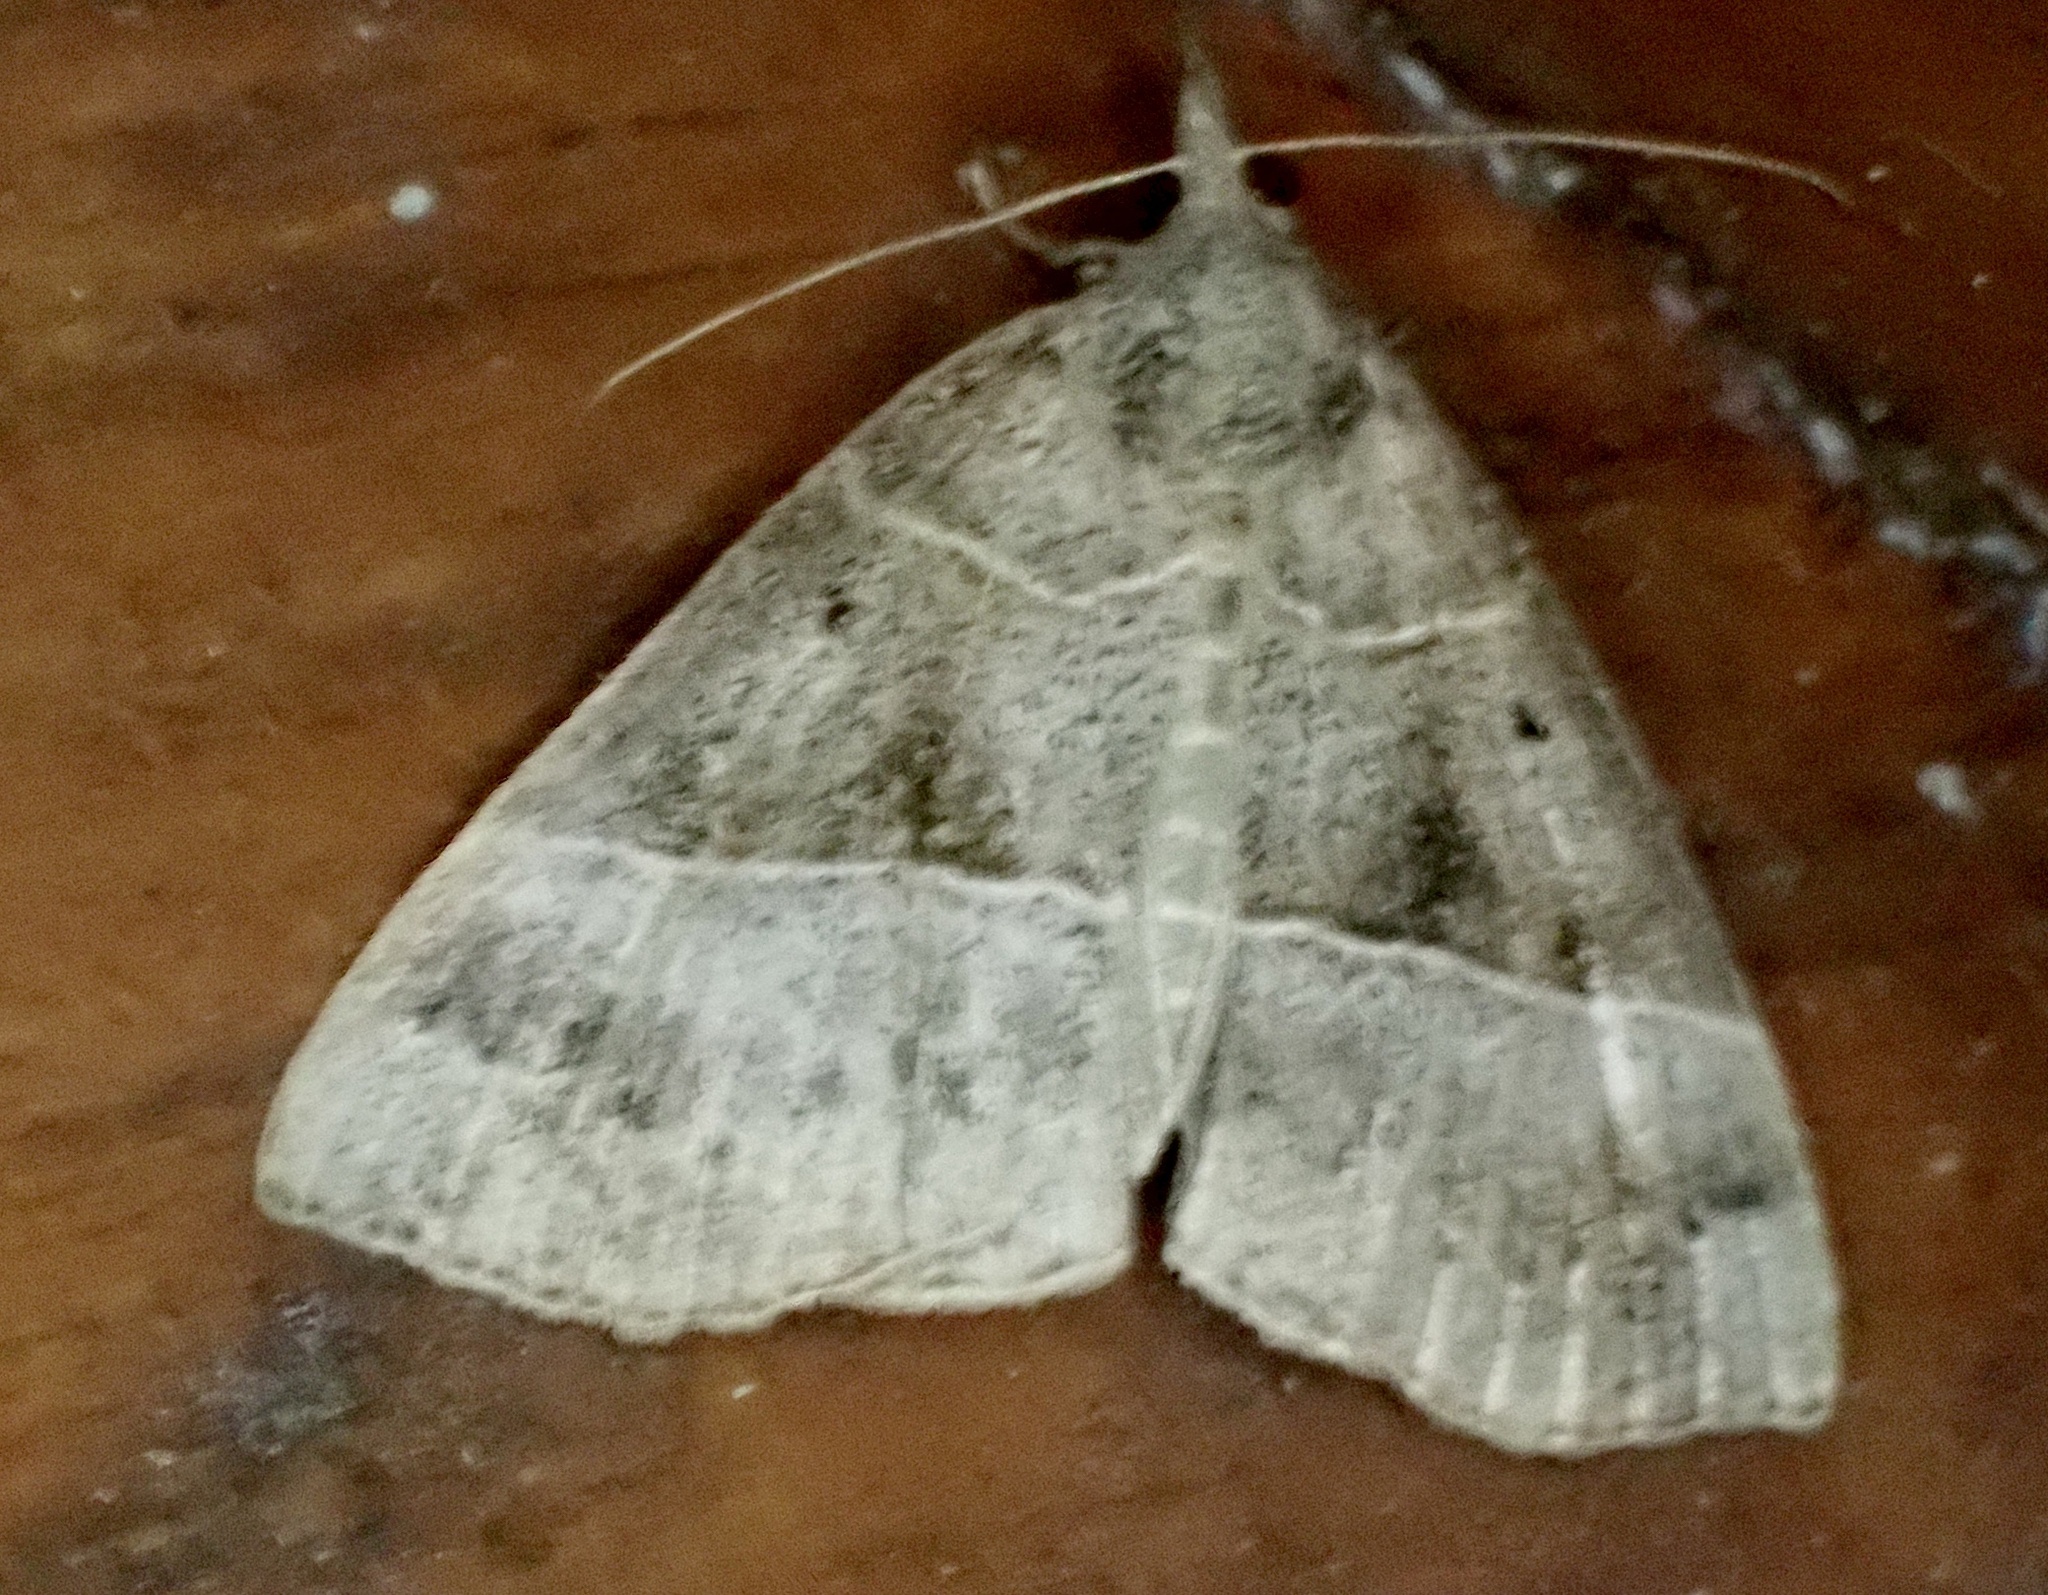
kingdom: Animalia
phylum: Arthropoda
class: Insecta
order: Lepidoptera
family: Erebidae
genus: Hypena
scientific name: Hypena deceptalis
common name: Deceptive snout
